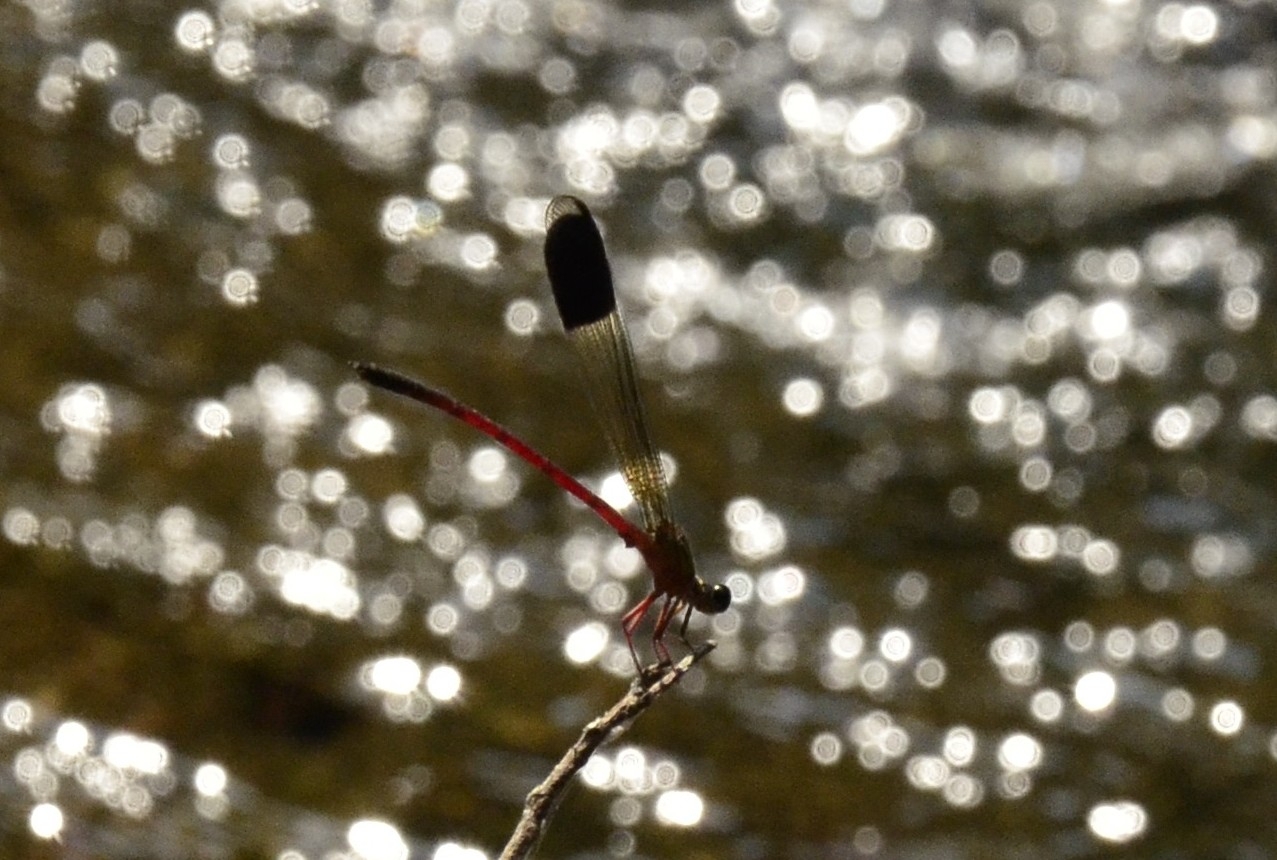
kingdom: Animalia
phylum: Arthropoda
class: Insecta
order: Odonata
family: Euphaeidae
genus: Euphaea
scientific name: Euphaea fraseri
